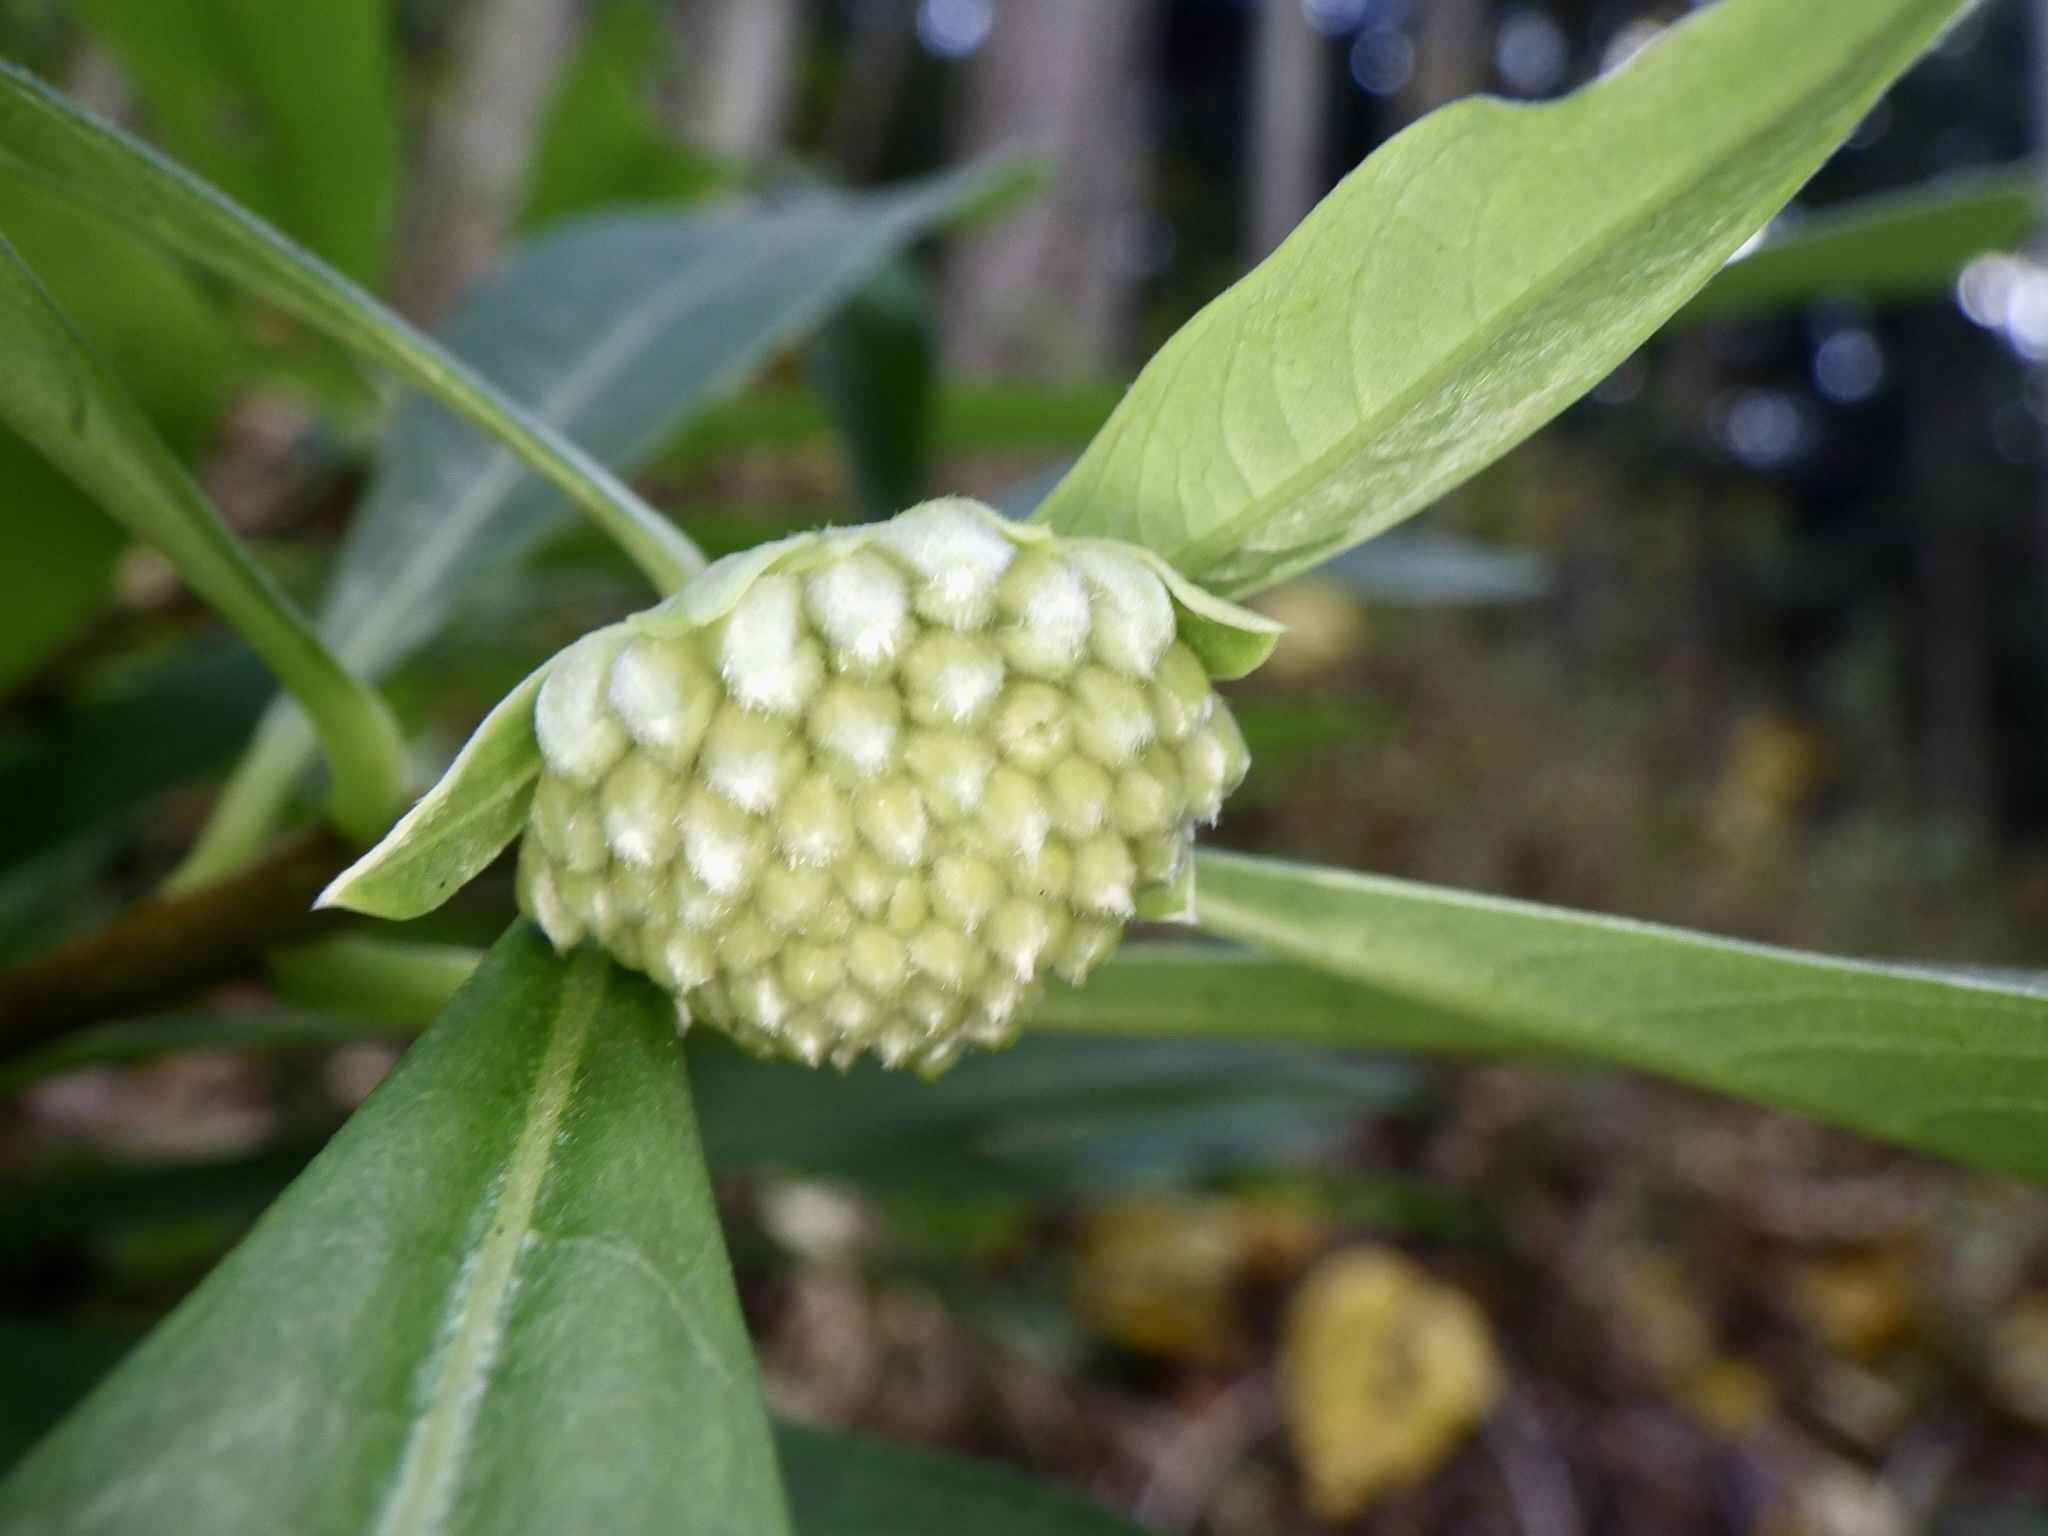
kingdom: Plantae
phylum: Tracheophyta
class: Magnoliopsida
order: Malvales
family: Thymelaeaceae
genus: Edgeworthia
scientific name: Edgeworthia chrysantha
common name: Oriental paperbush
